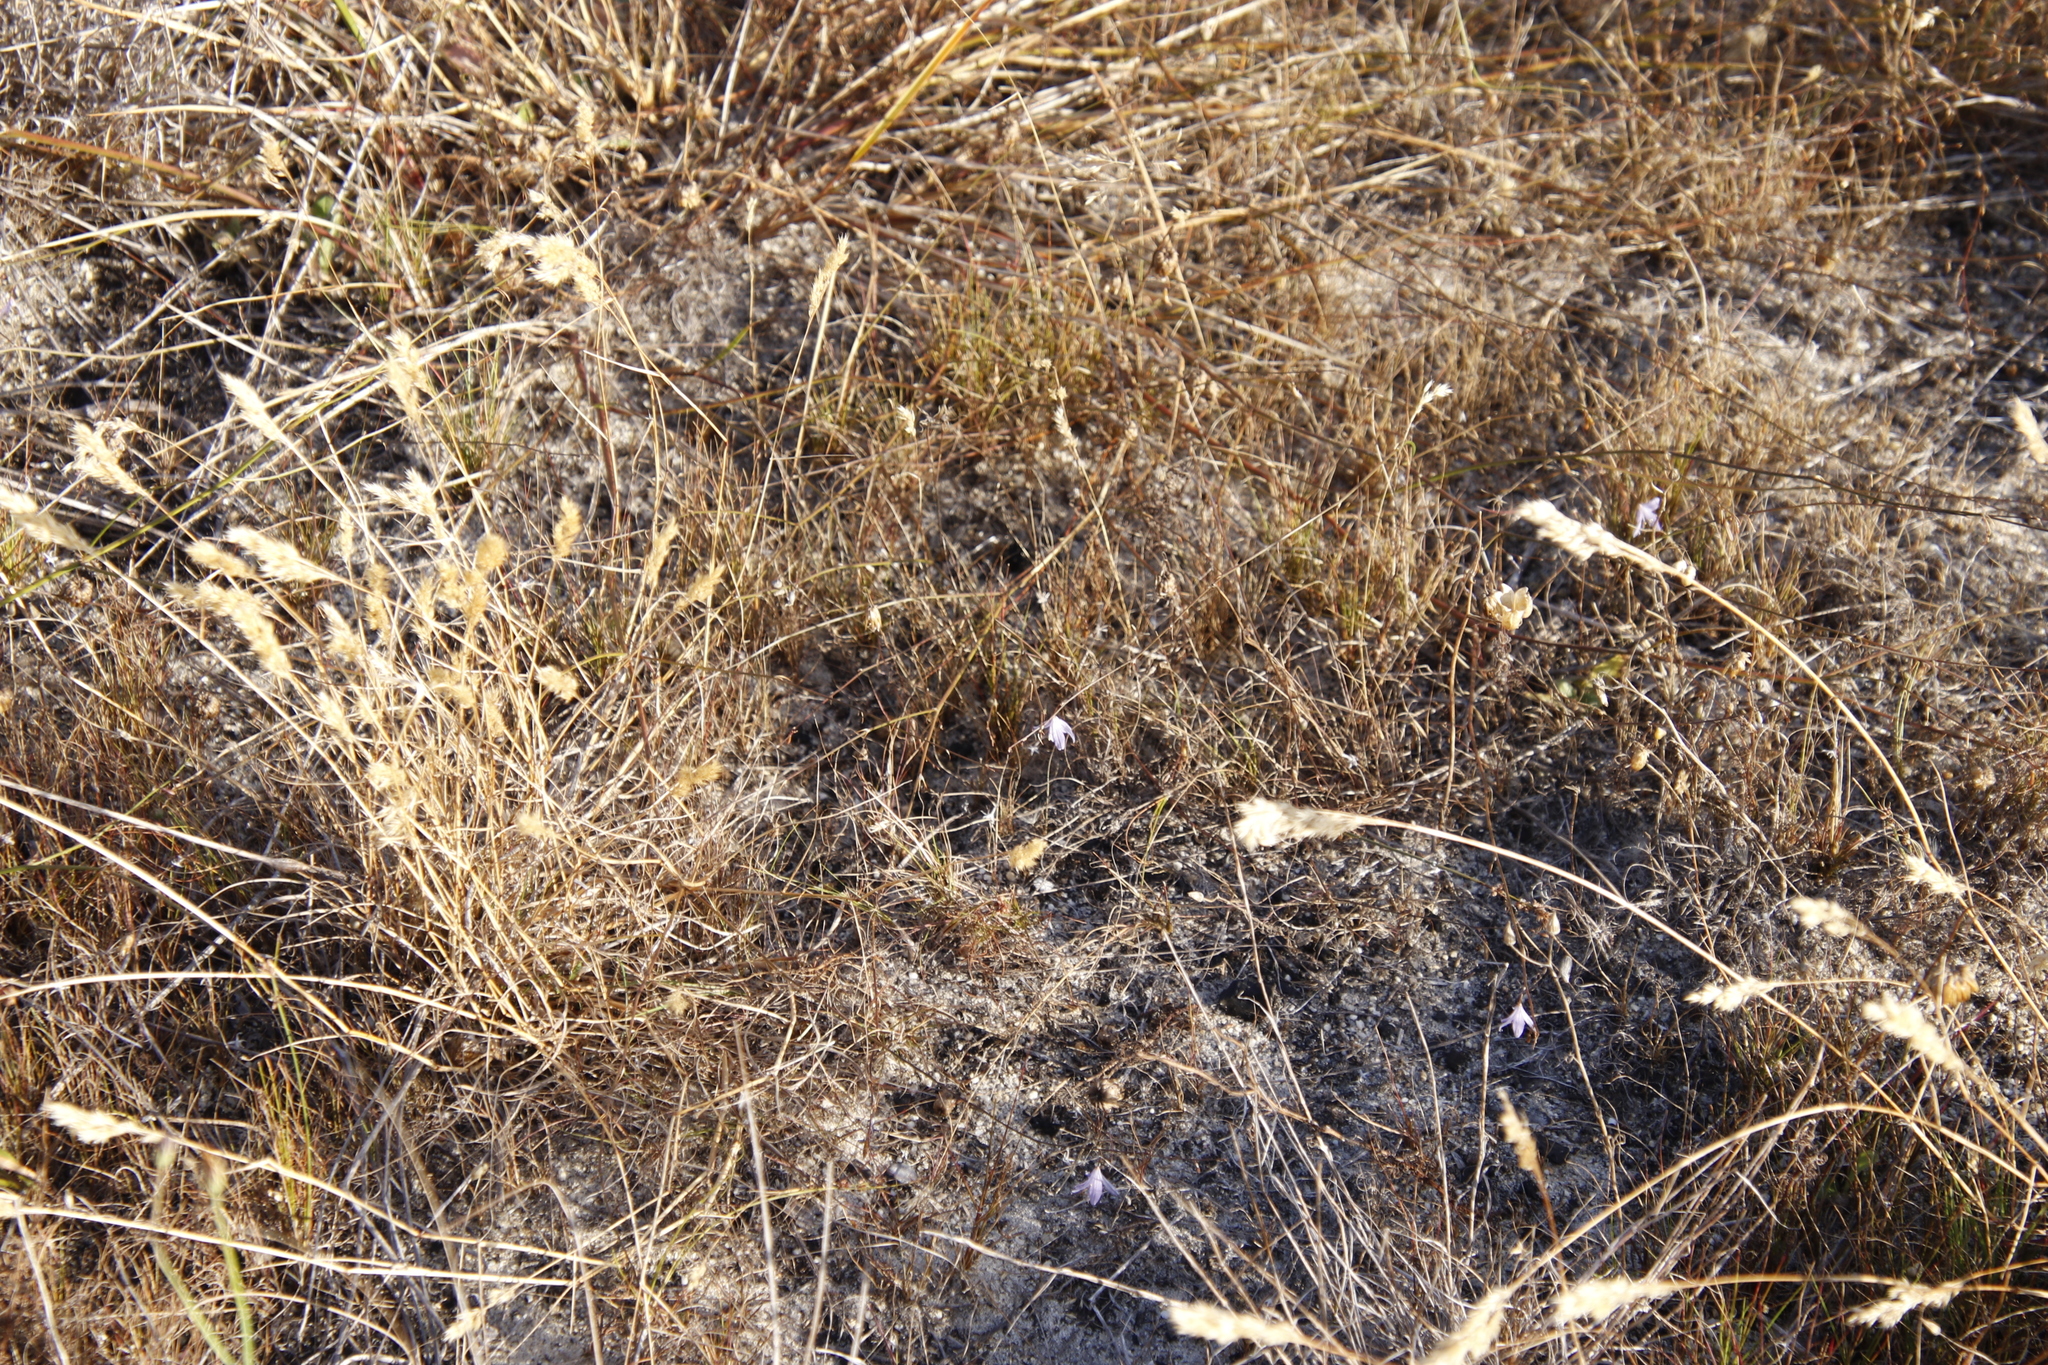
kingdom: Plantae
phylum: Tracheophyta
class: Liliopsida
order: Asparagales
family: Asphodelaceae
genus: Caesia
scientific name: Caesia contorta
